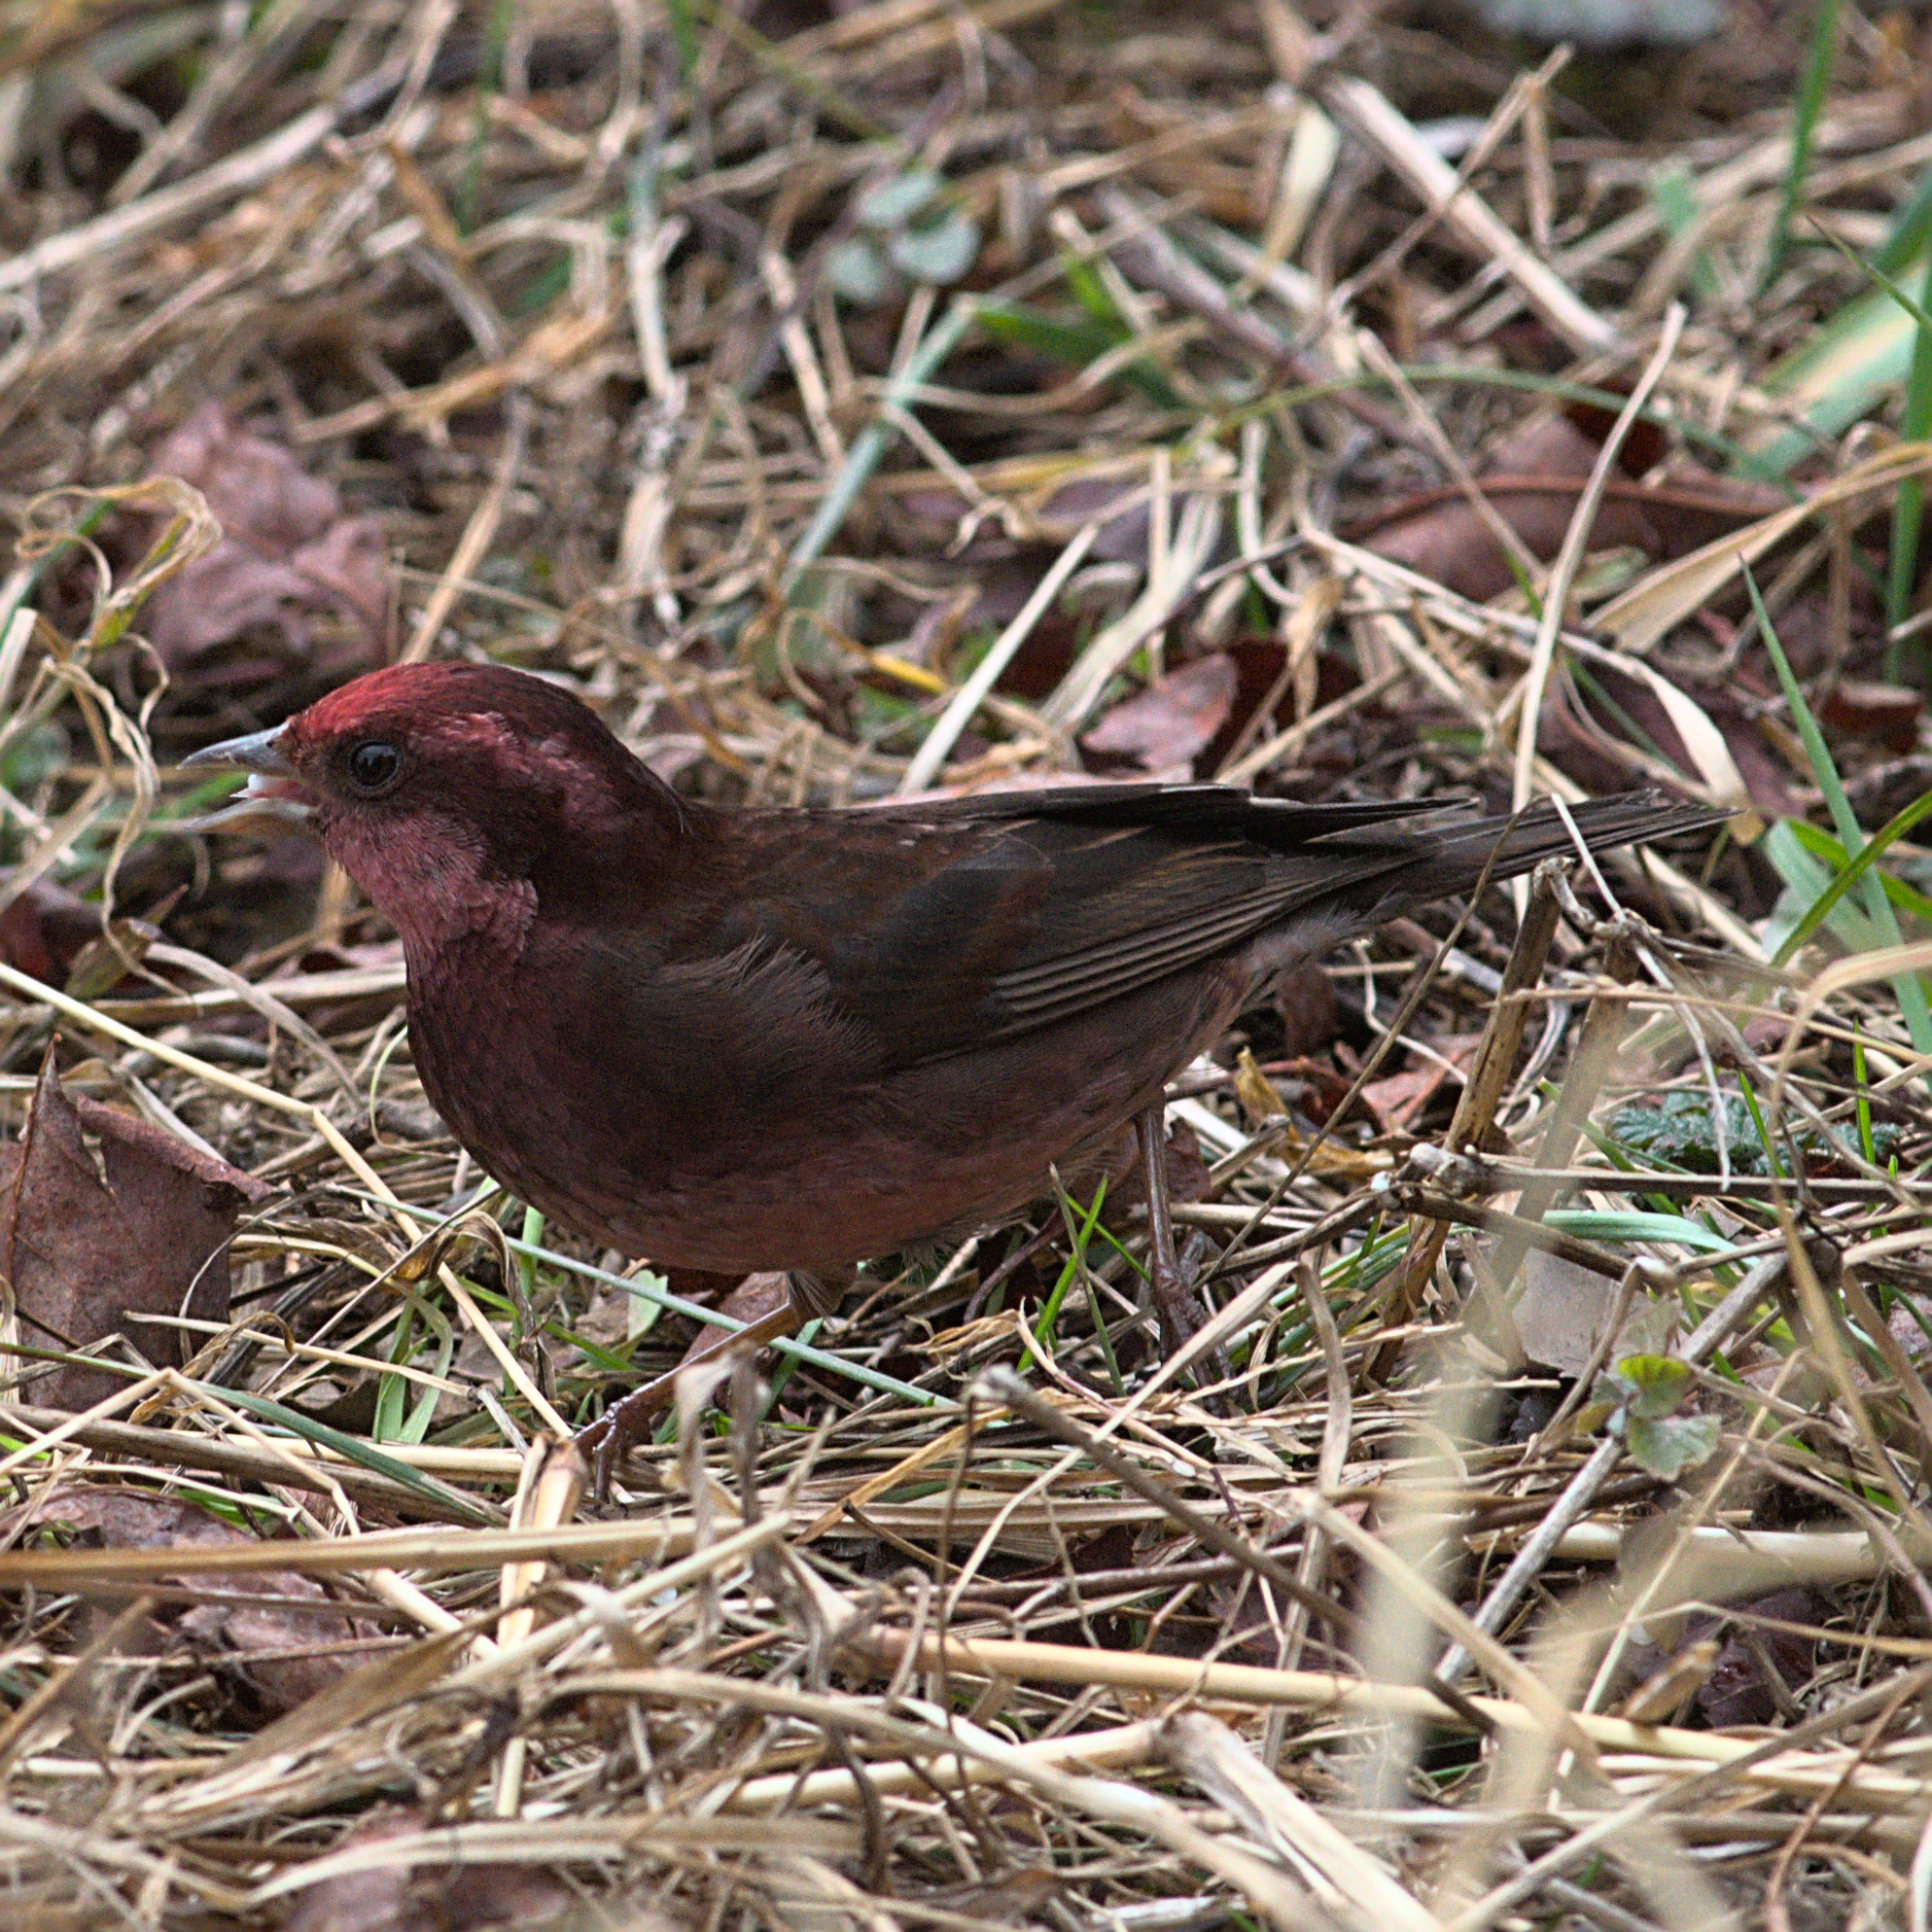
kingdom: Animalia
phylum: Chordata
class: Aves
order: Passeriformes
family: Fringillidae
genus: Procarduelis
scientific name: Procarduelis nipalensis
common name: Dark-breasted rosefinch
